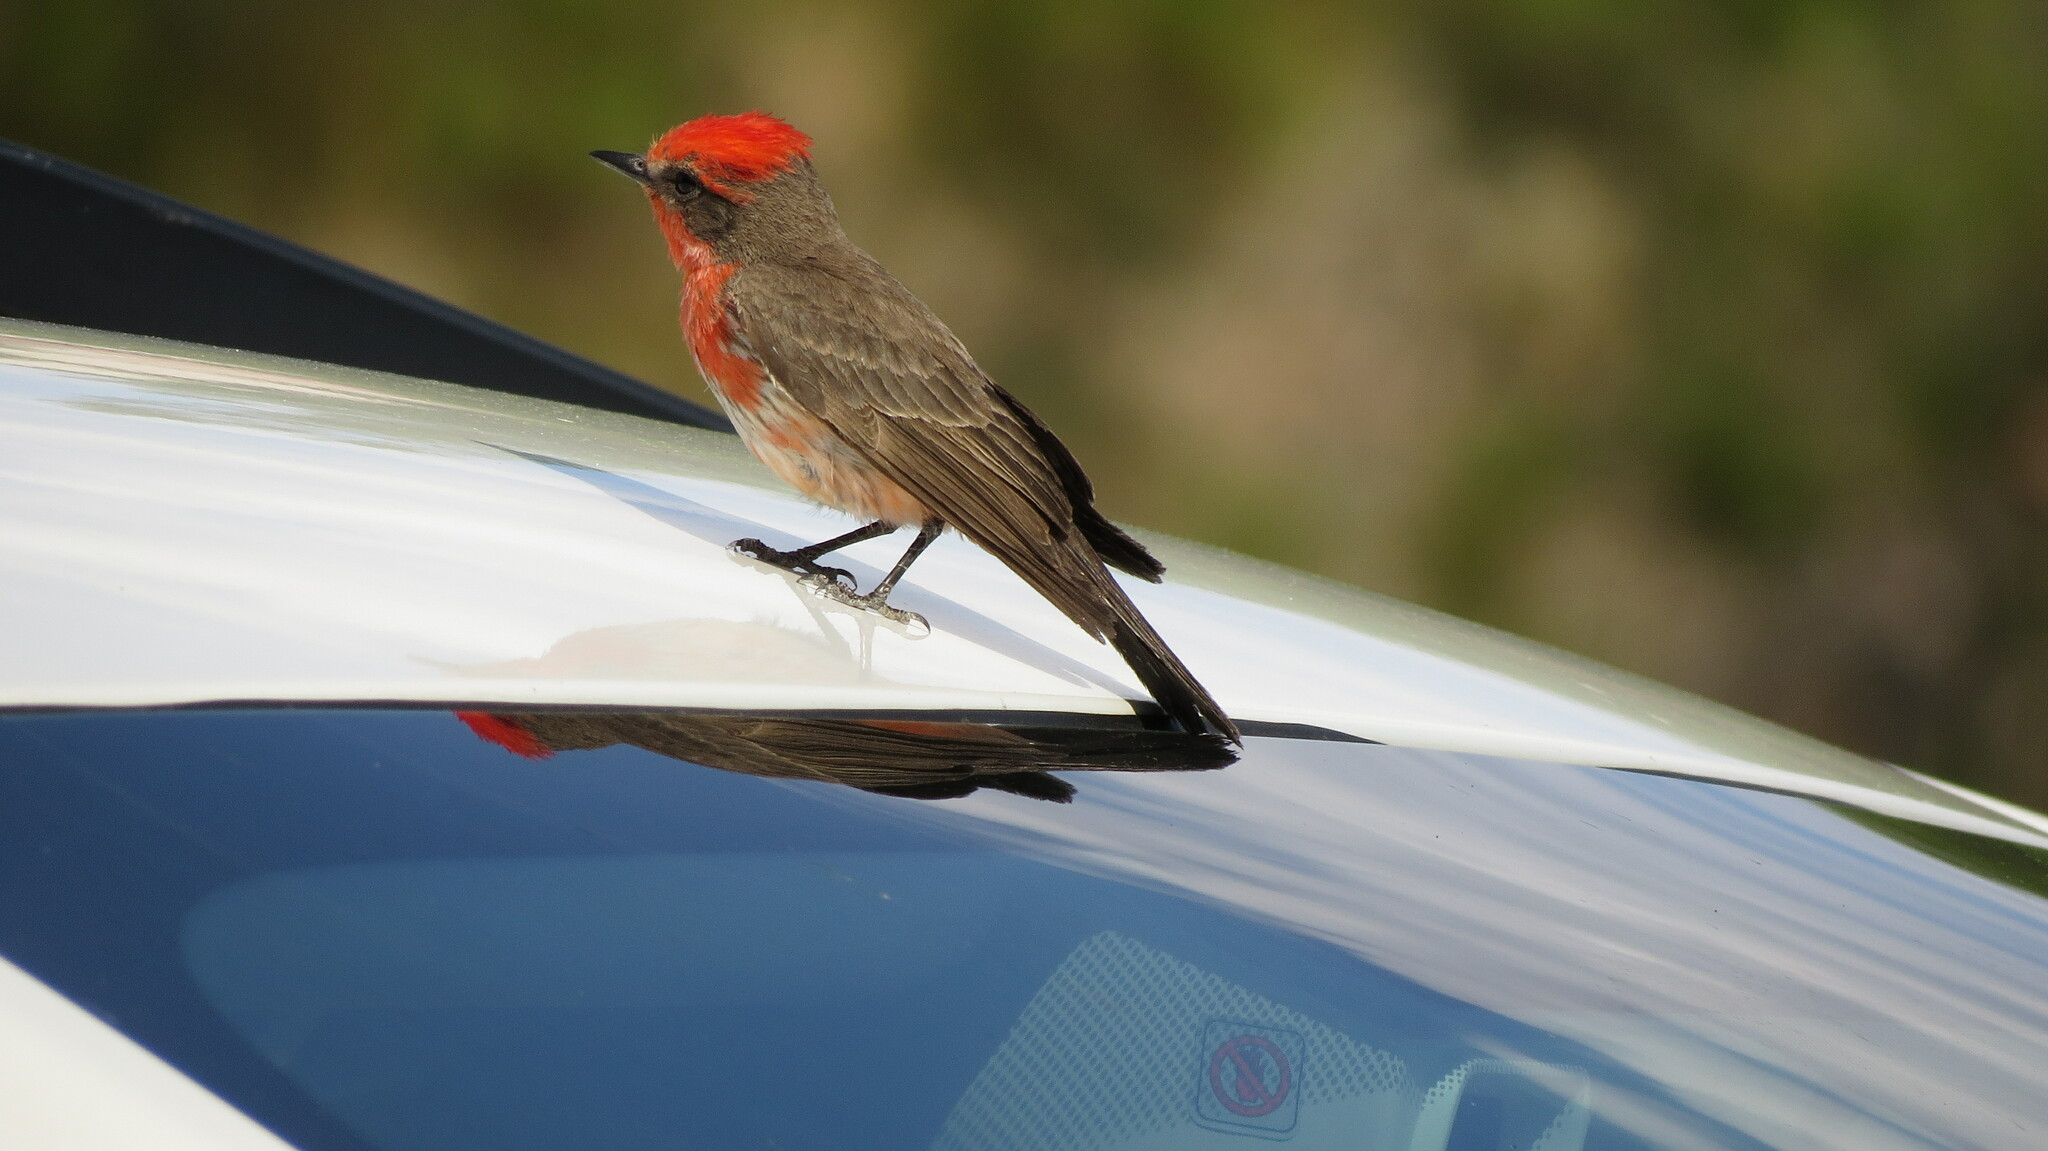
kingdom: Animalia
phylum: Chordata
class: Aves
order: Passeriformes
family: Tyrannidae
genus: Pyrocephalus
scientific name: Pyrocephalus rubinus
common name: Vermilion flycatcher
